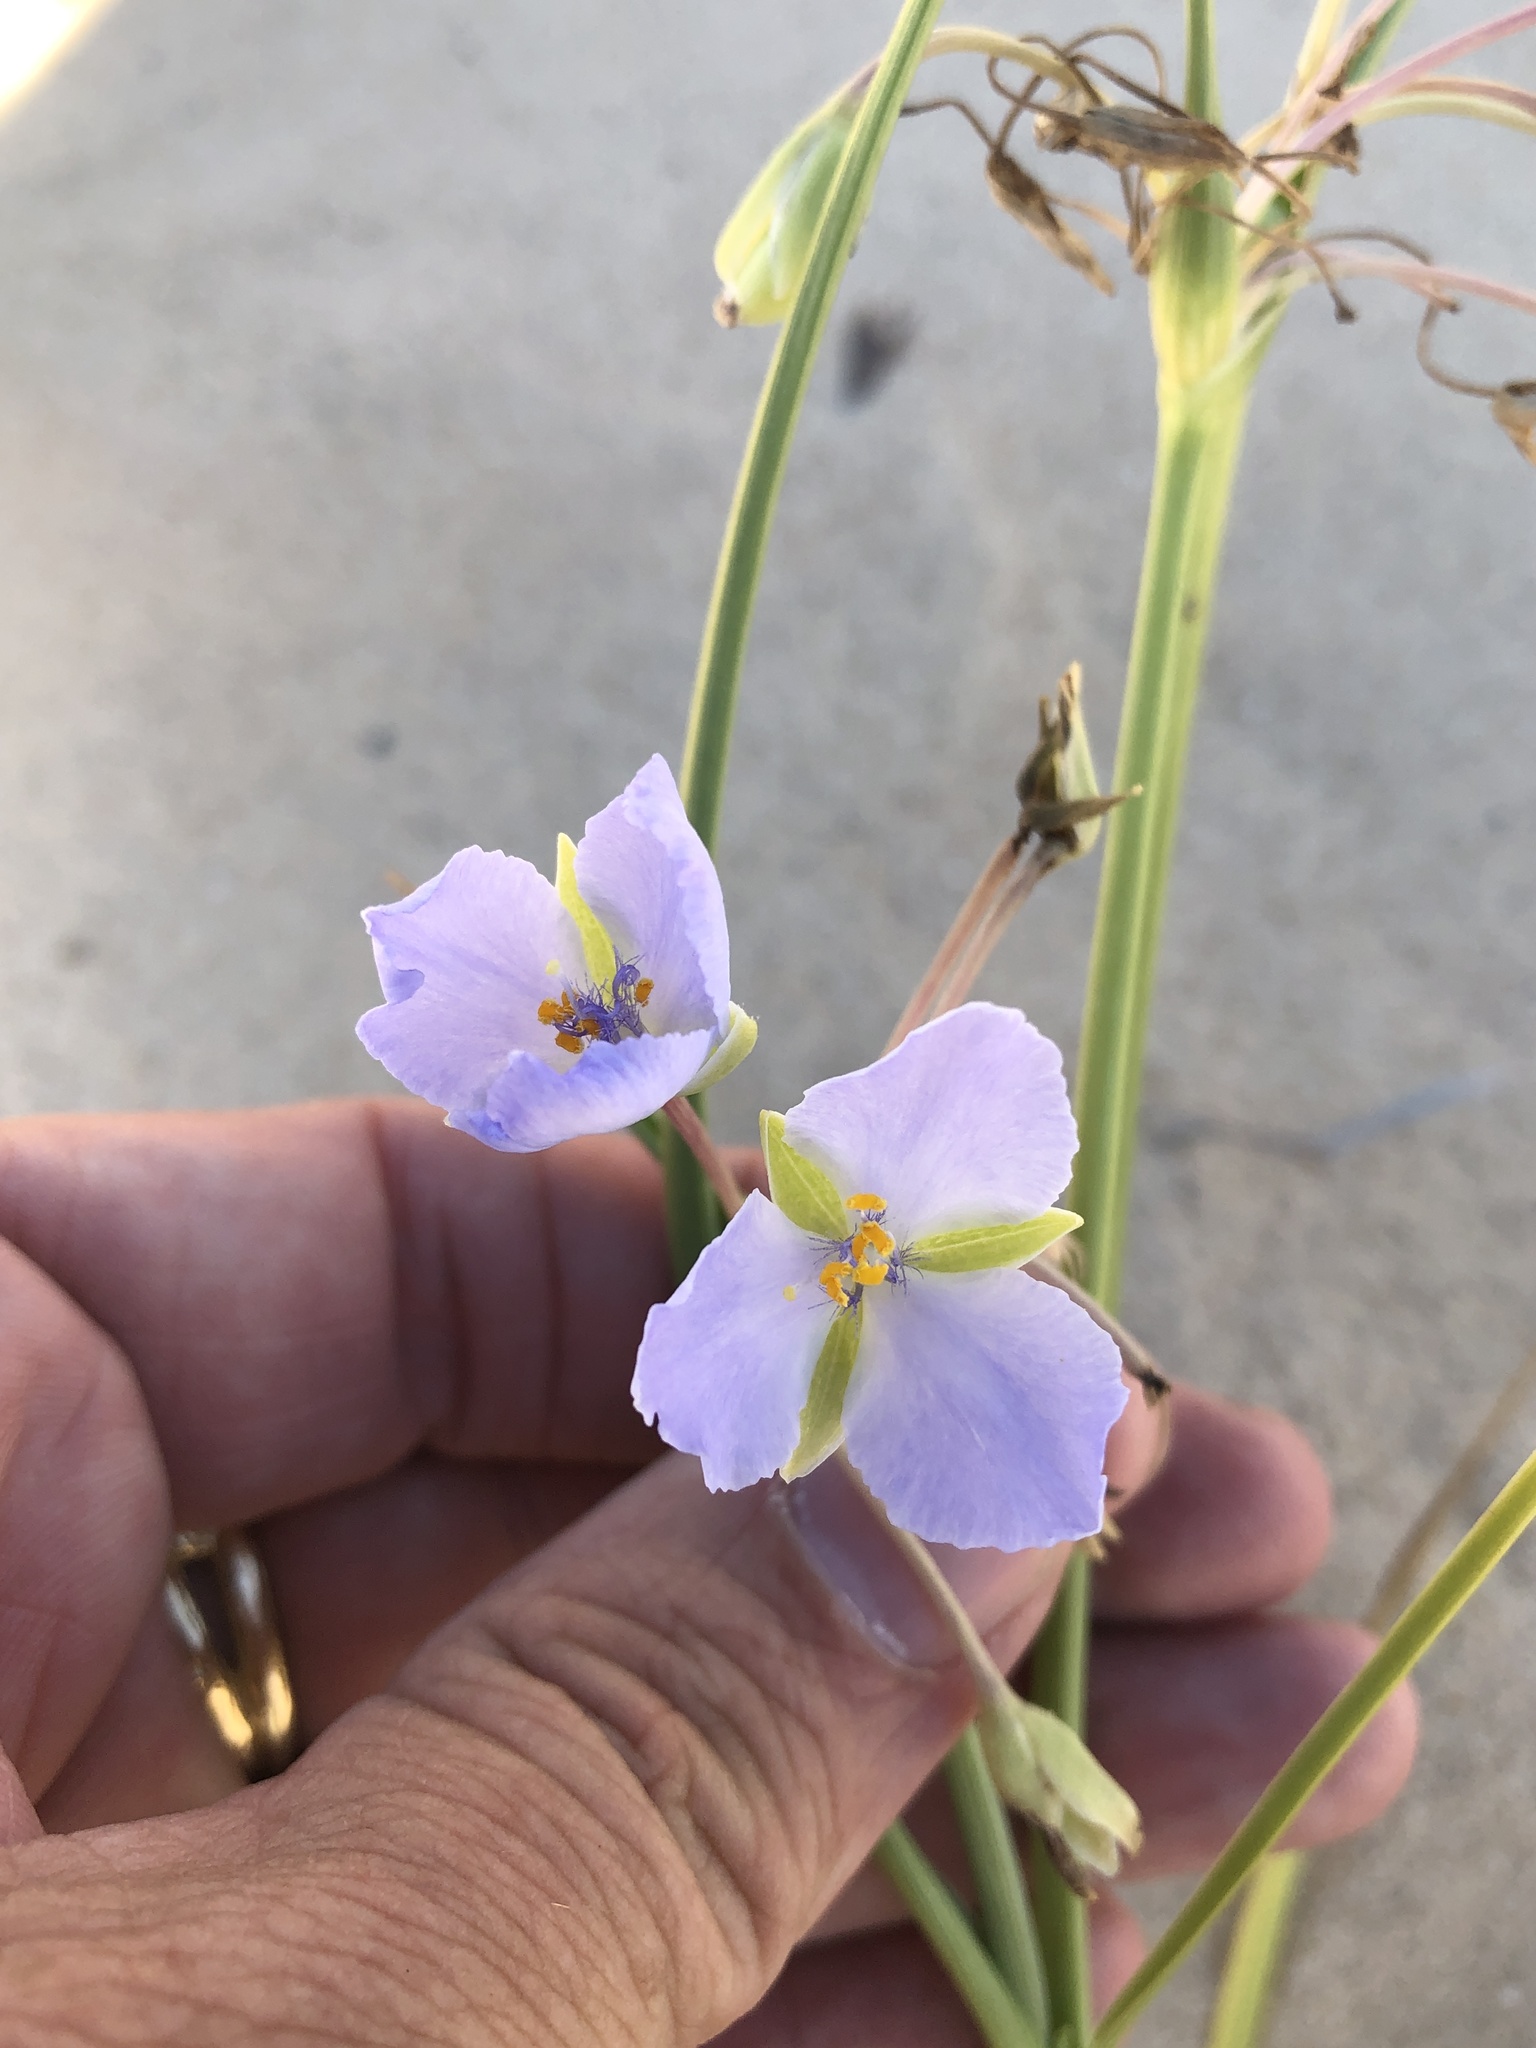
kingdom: Plantae
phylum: Tracheophyta
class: Liliopsida
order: Commelinales
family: Commelinaceae
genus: Tradescantia
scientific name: Tradescantia occidentalis
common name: Prairie spiderwort
